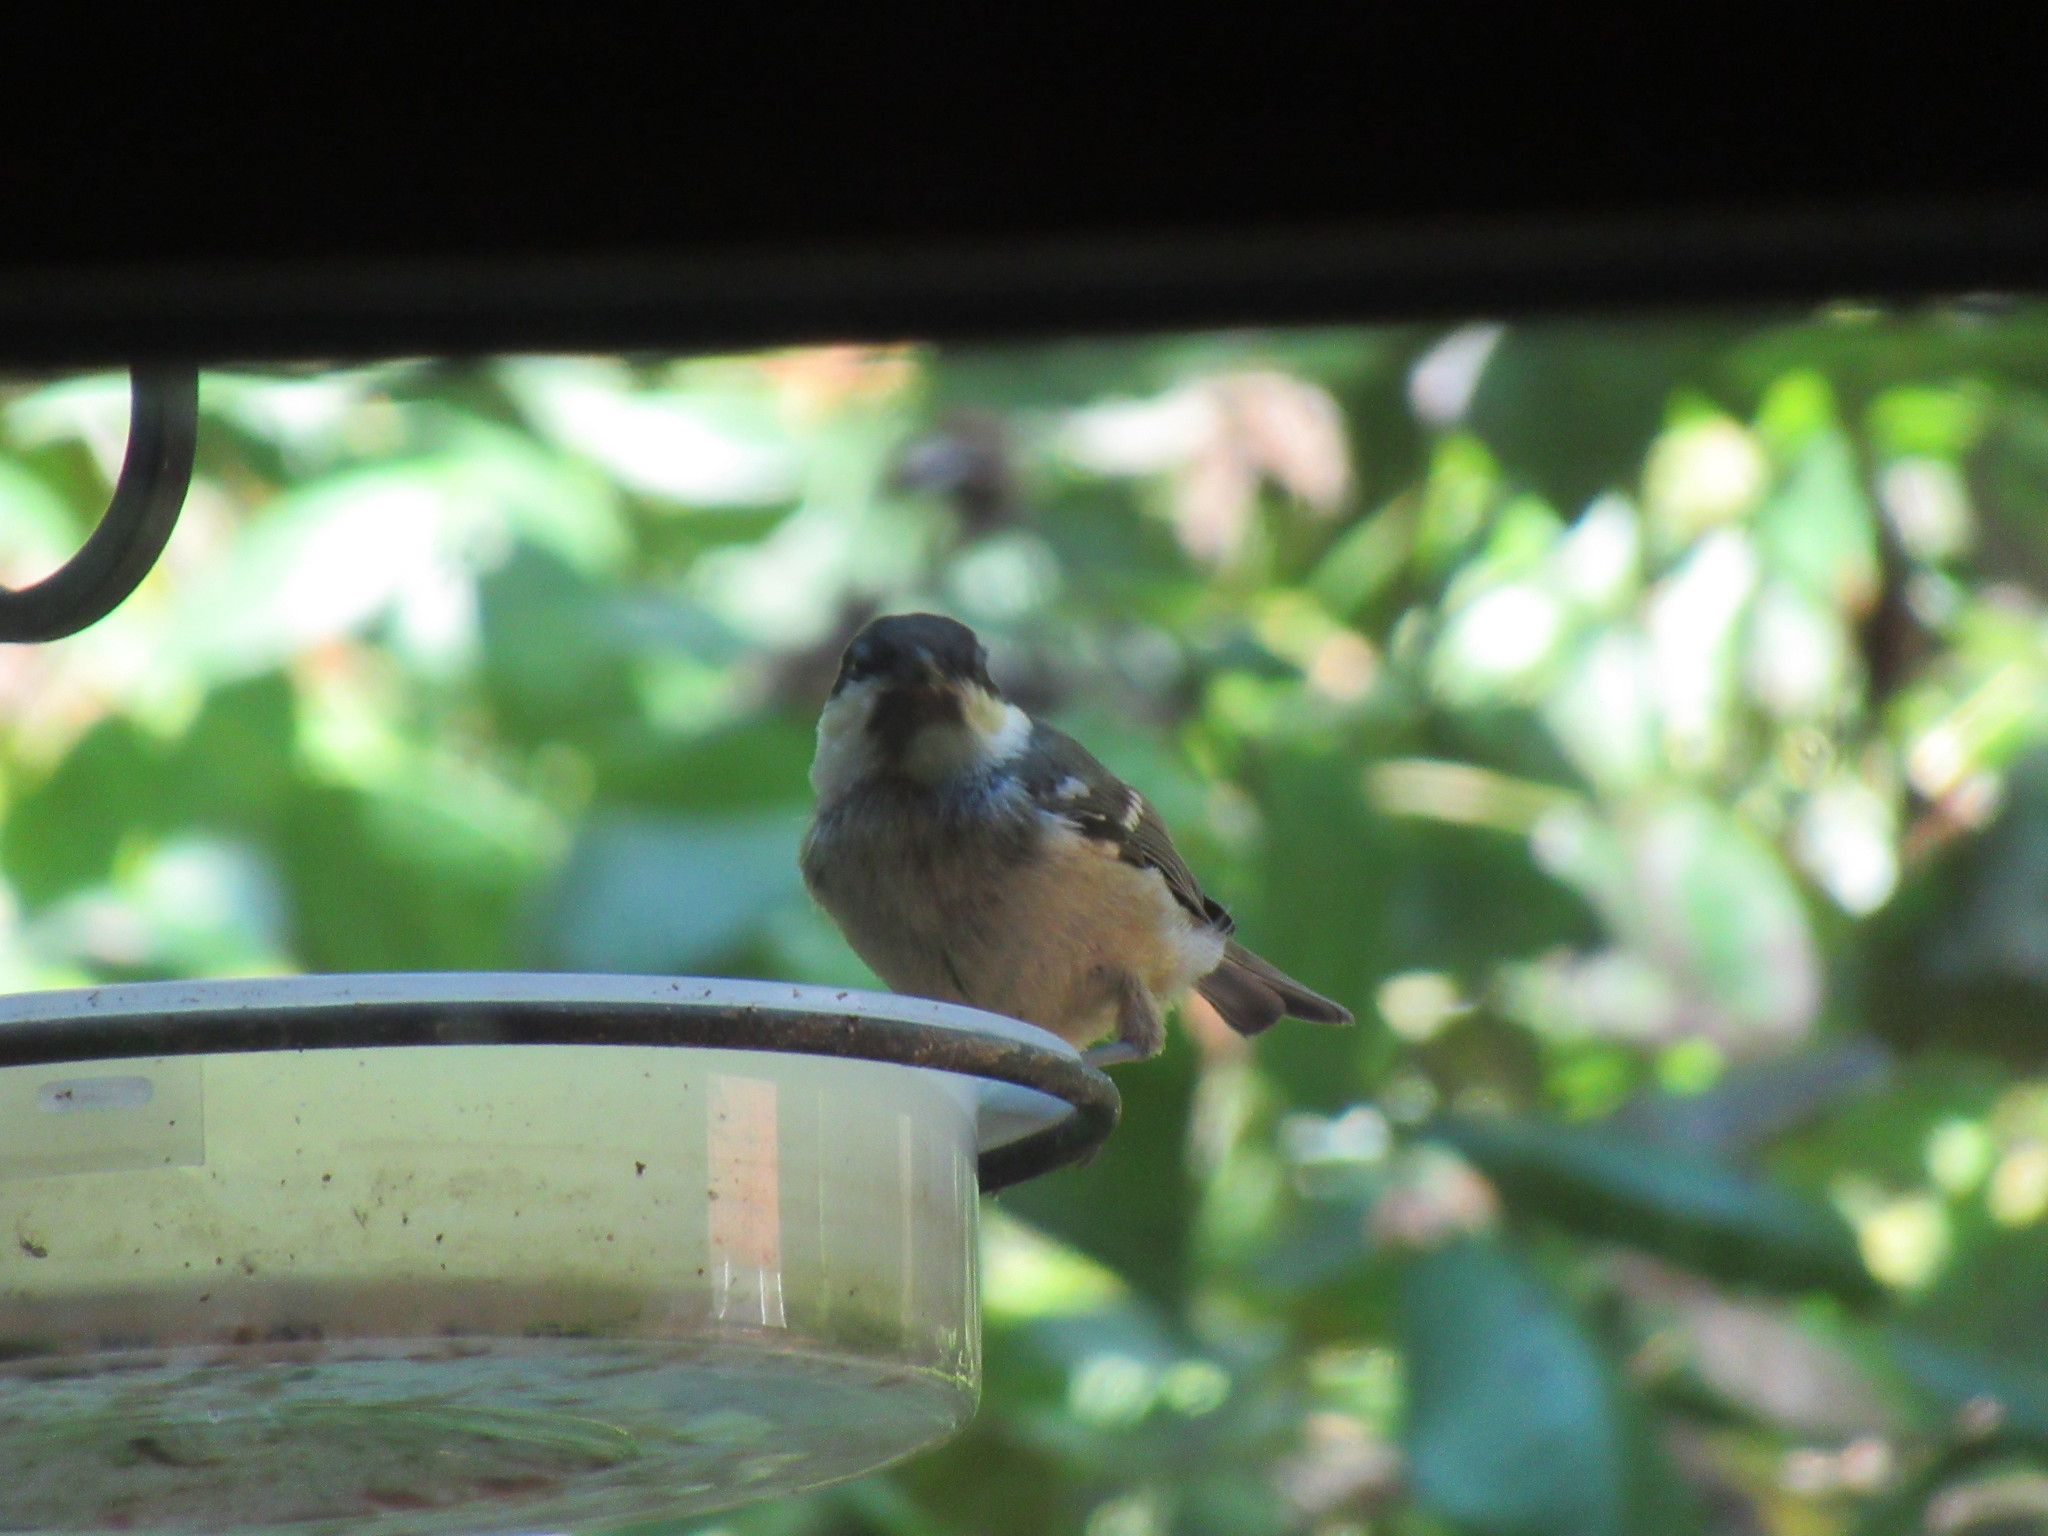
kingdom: Animalia
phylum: Chordata
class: Aves
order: Passeriformes
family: Paridae
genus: Periparus
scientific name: Periparus ater
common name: Coal tit
